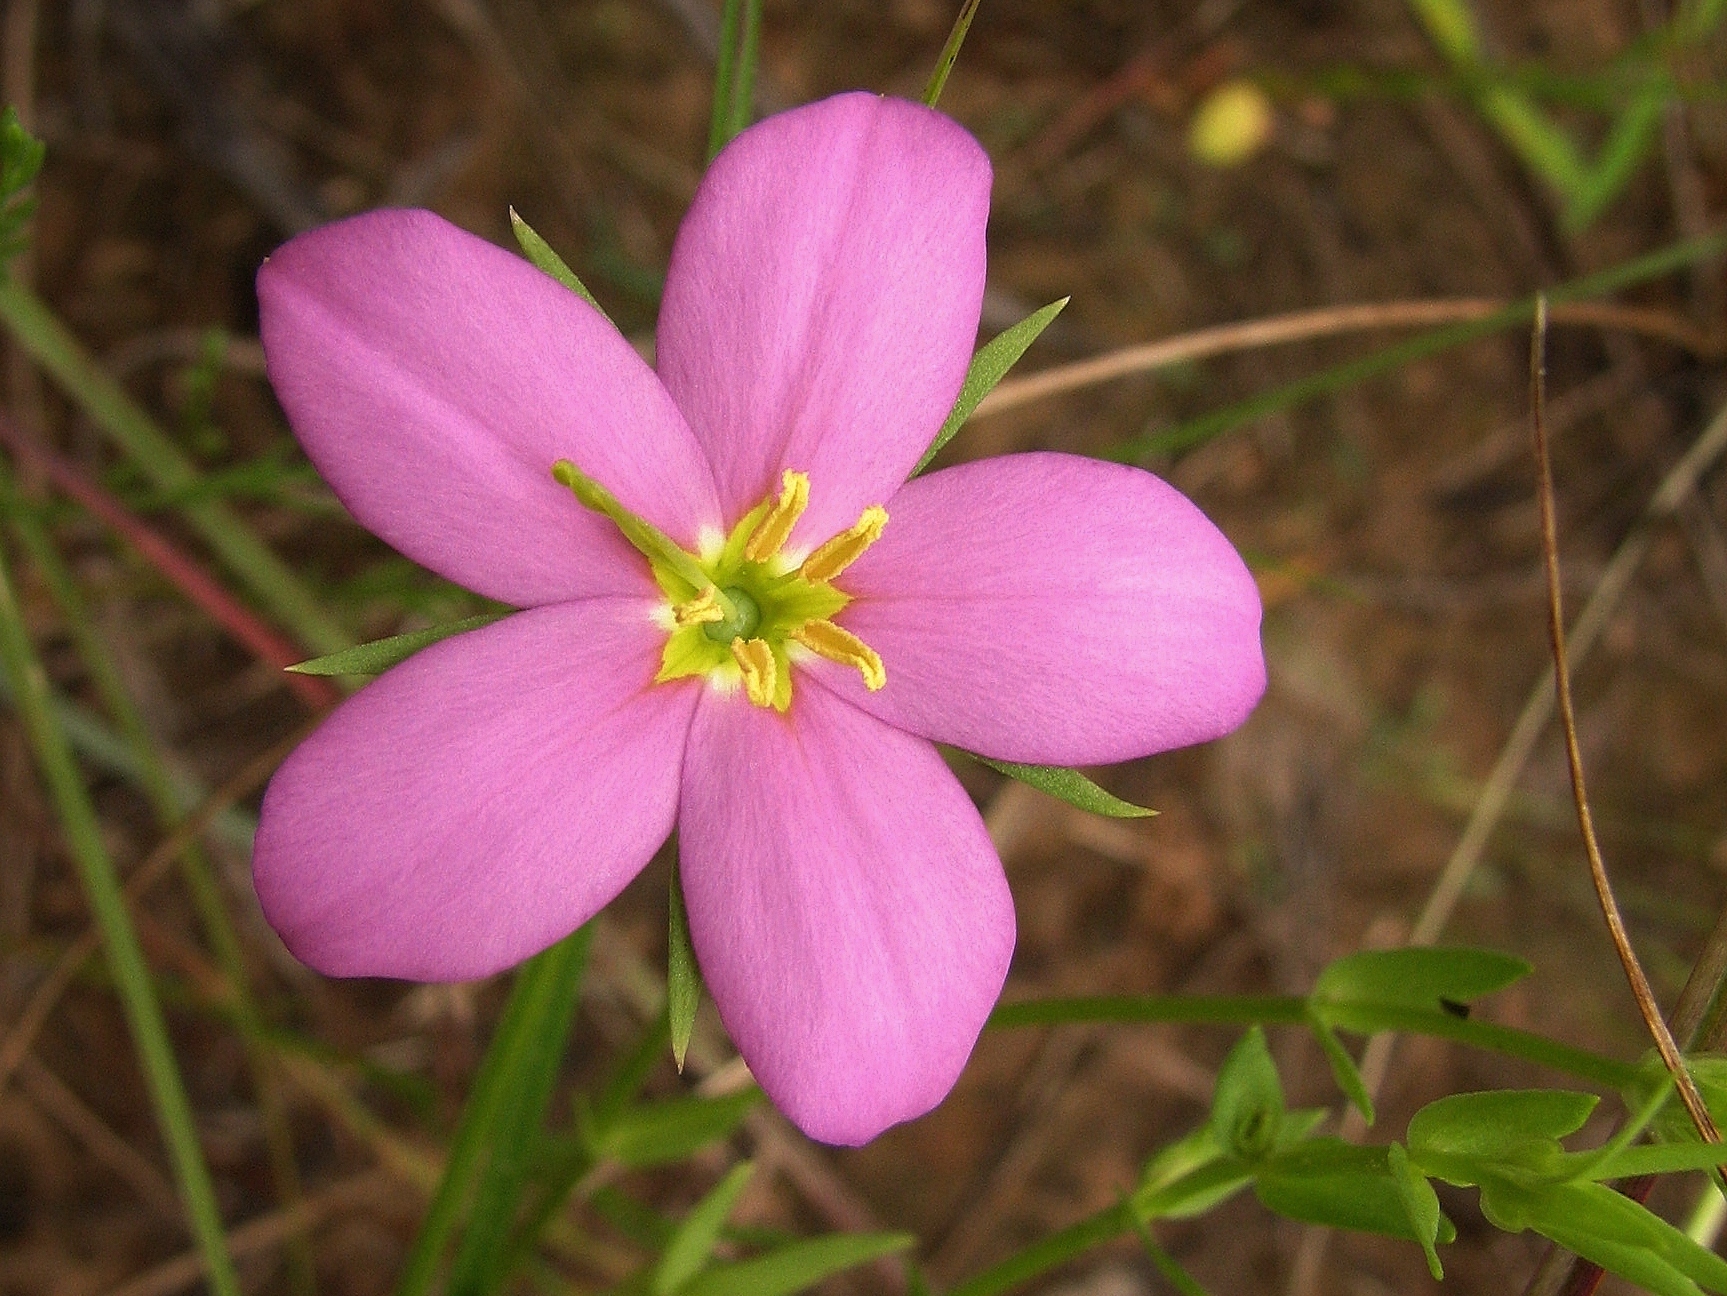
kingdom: Plantae
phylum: Tracheophyta
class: Magnoliopsida
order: Gentianales
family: Gentianaceae
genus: Sabatia
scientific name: Sabatia campestris
